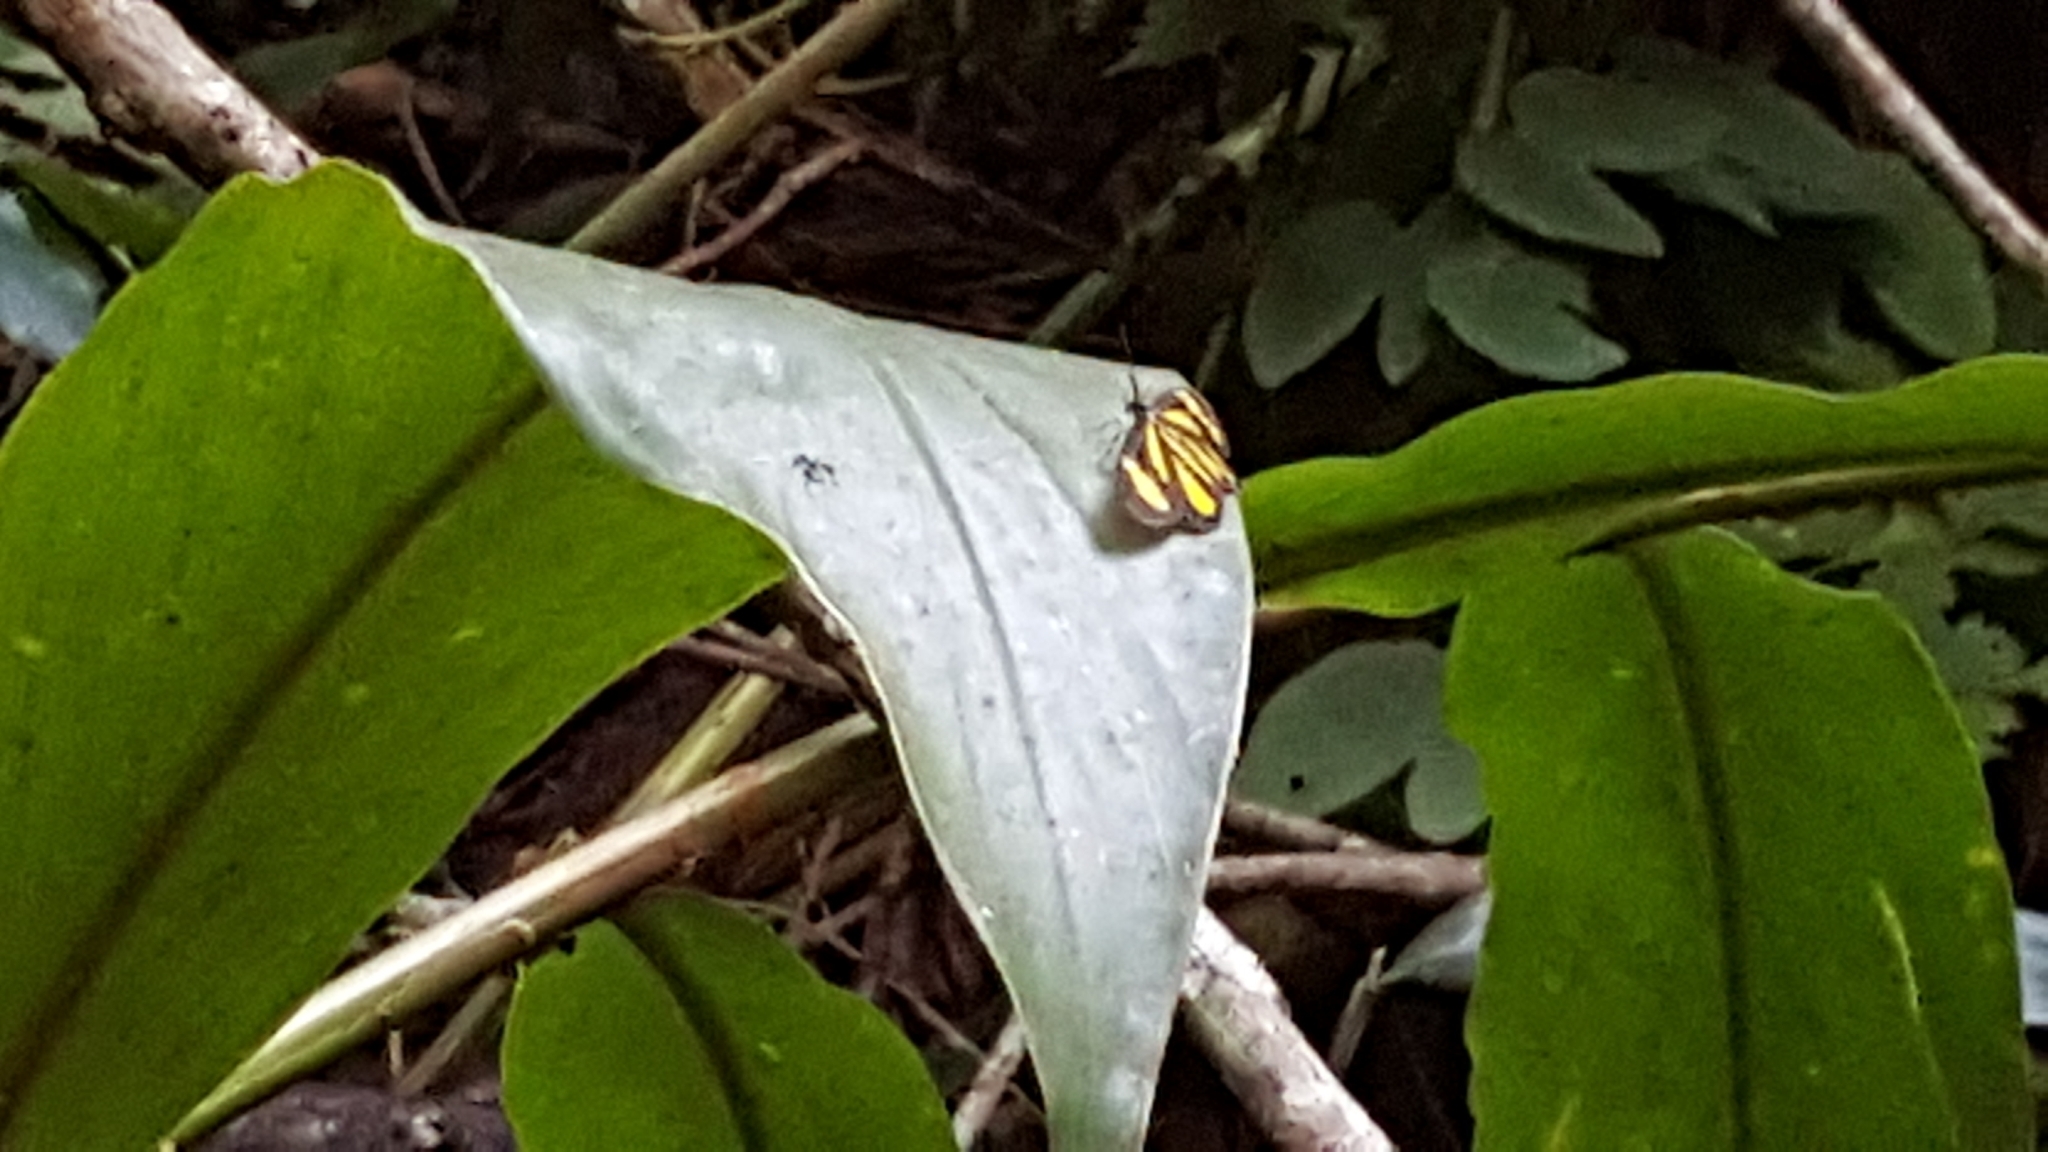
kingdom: Animalia
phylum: Arthropoda
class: Insecta
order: Lepidoptera
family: Geometridae
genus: Cyllopoda
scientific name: Cyllopoda bipuncta
